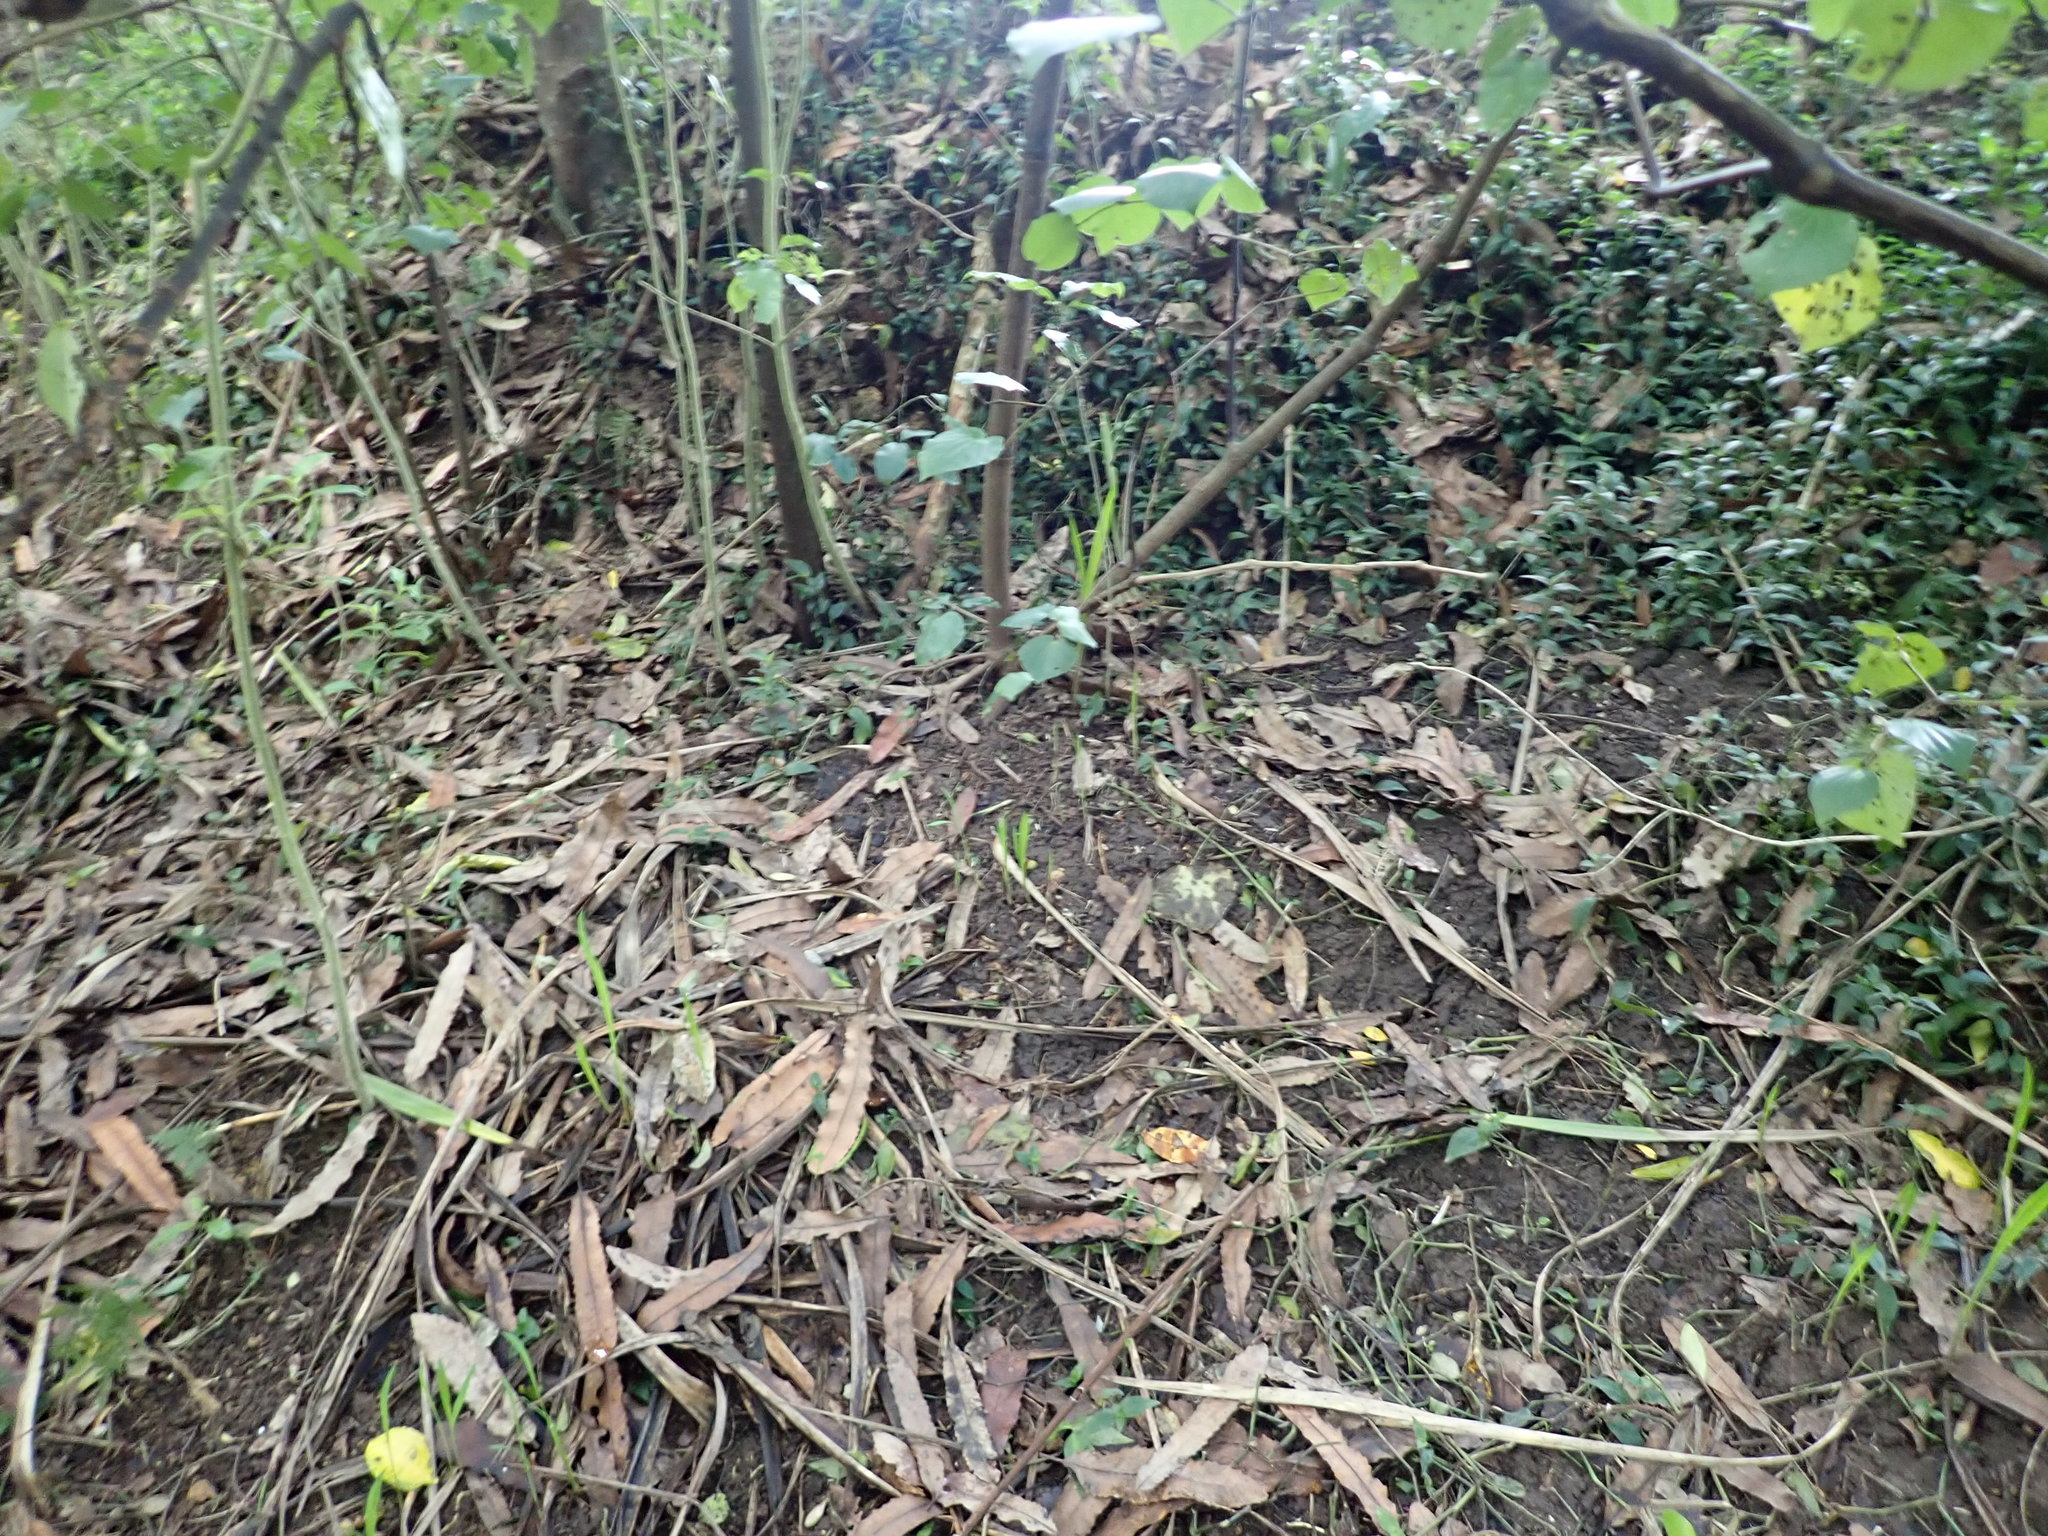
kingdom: Plantae
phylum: Tracheophyta
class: Magnoliopsida
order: Piperales
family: Piperaceae
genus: Macropiper
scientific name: Macropiper excelsum
